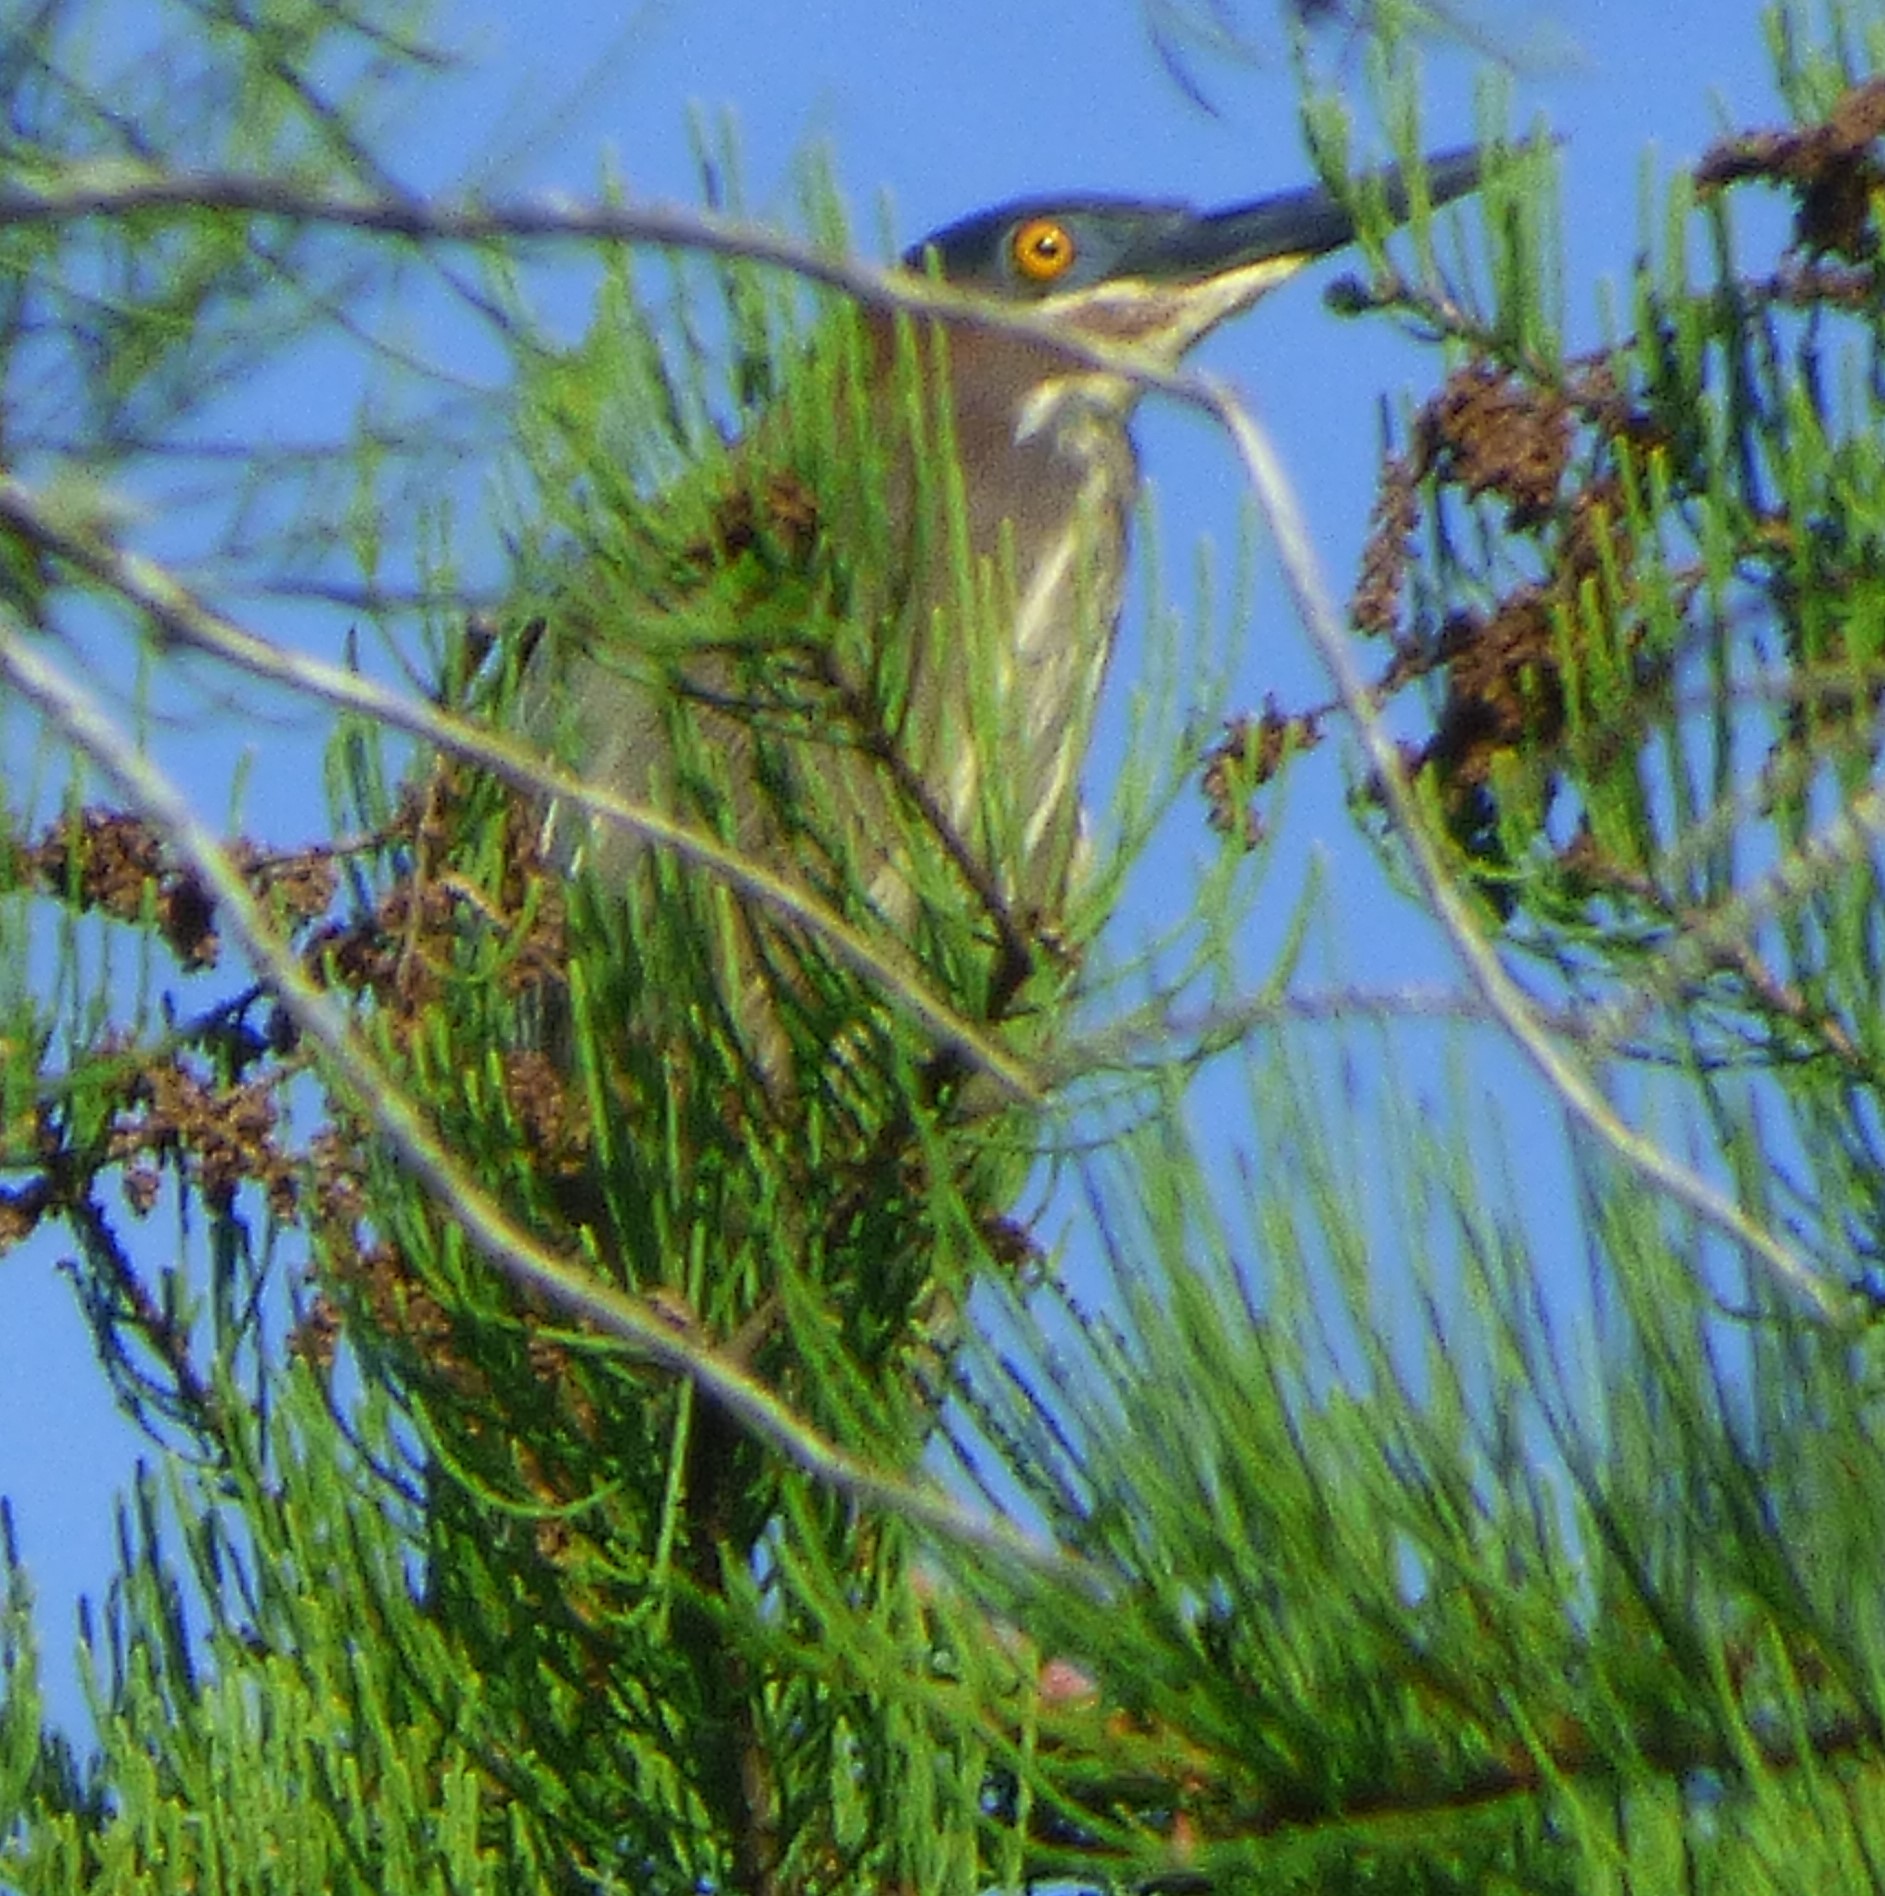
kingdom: Animalia
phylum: Chordata
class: Aves
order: Pelecaniformes
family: Ardeidae
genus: Butorides
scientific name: Butorides virescens
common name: Green heron
